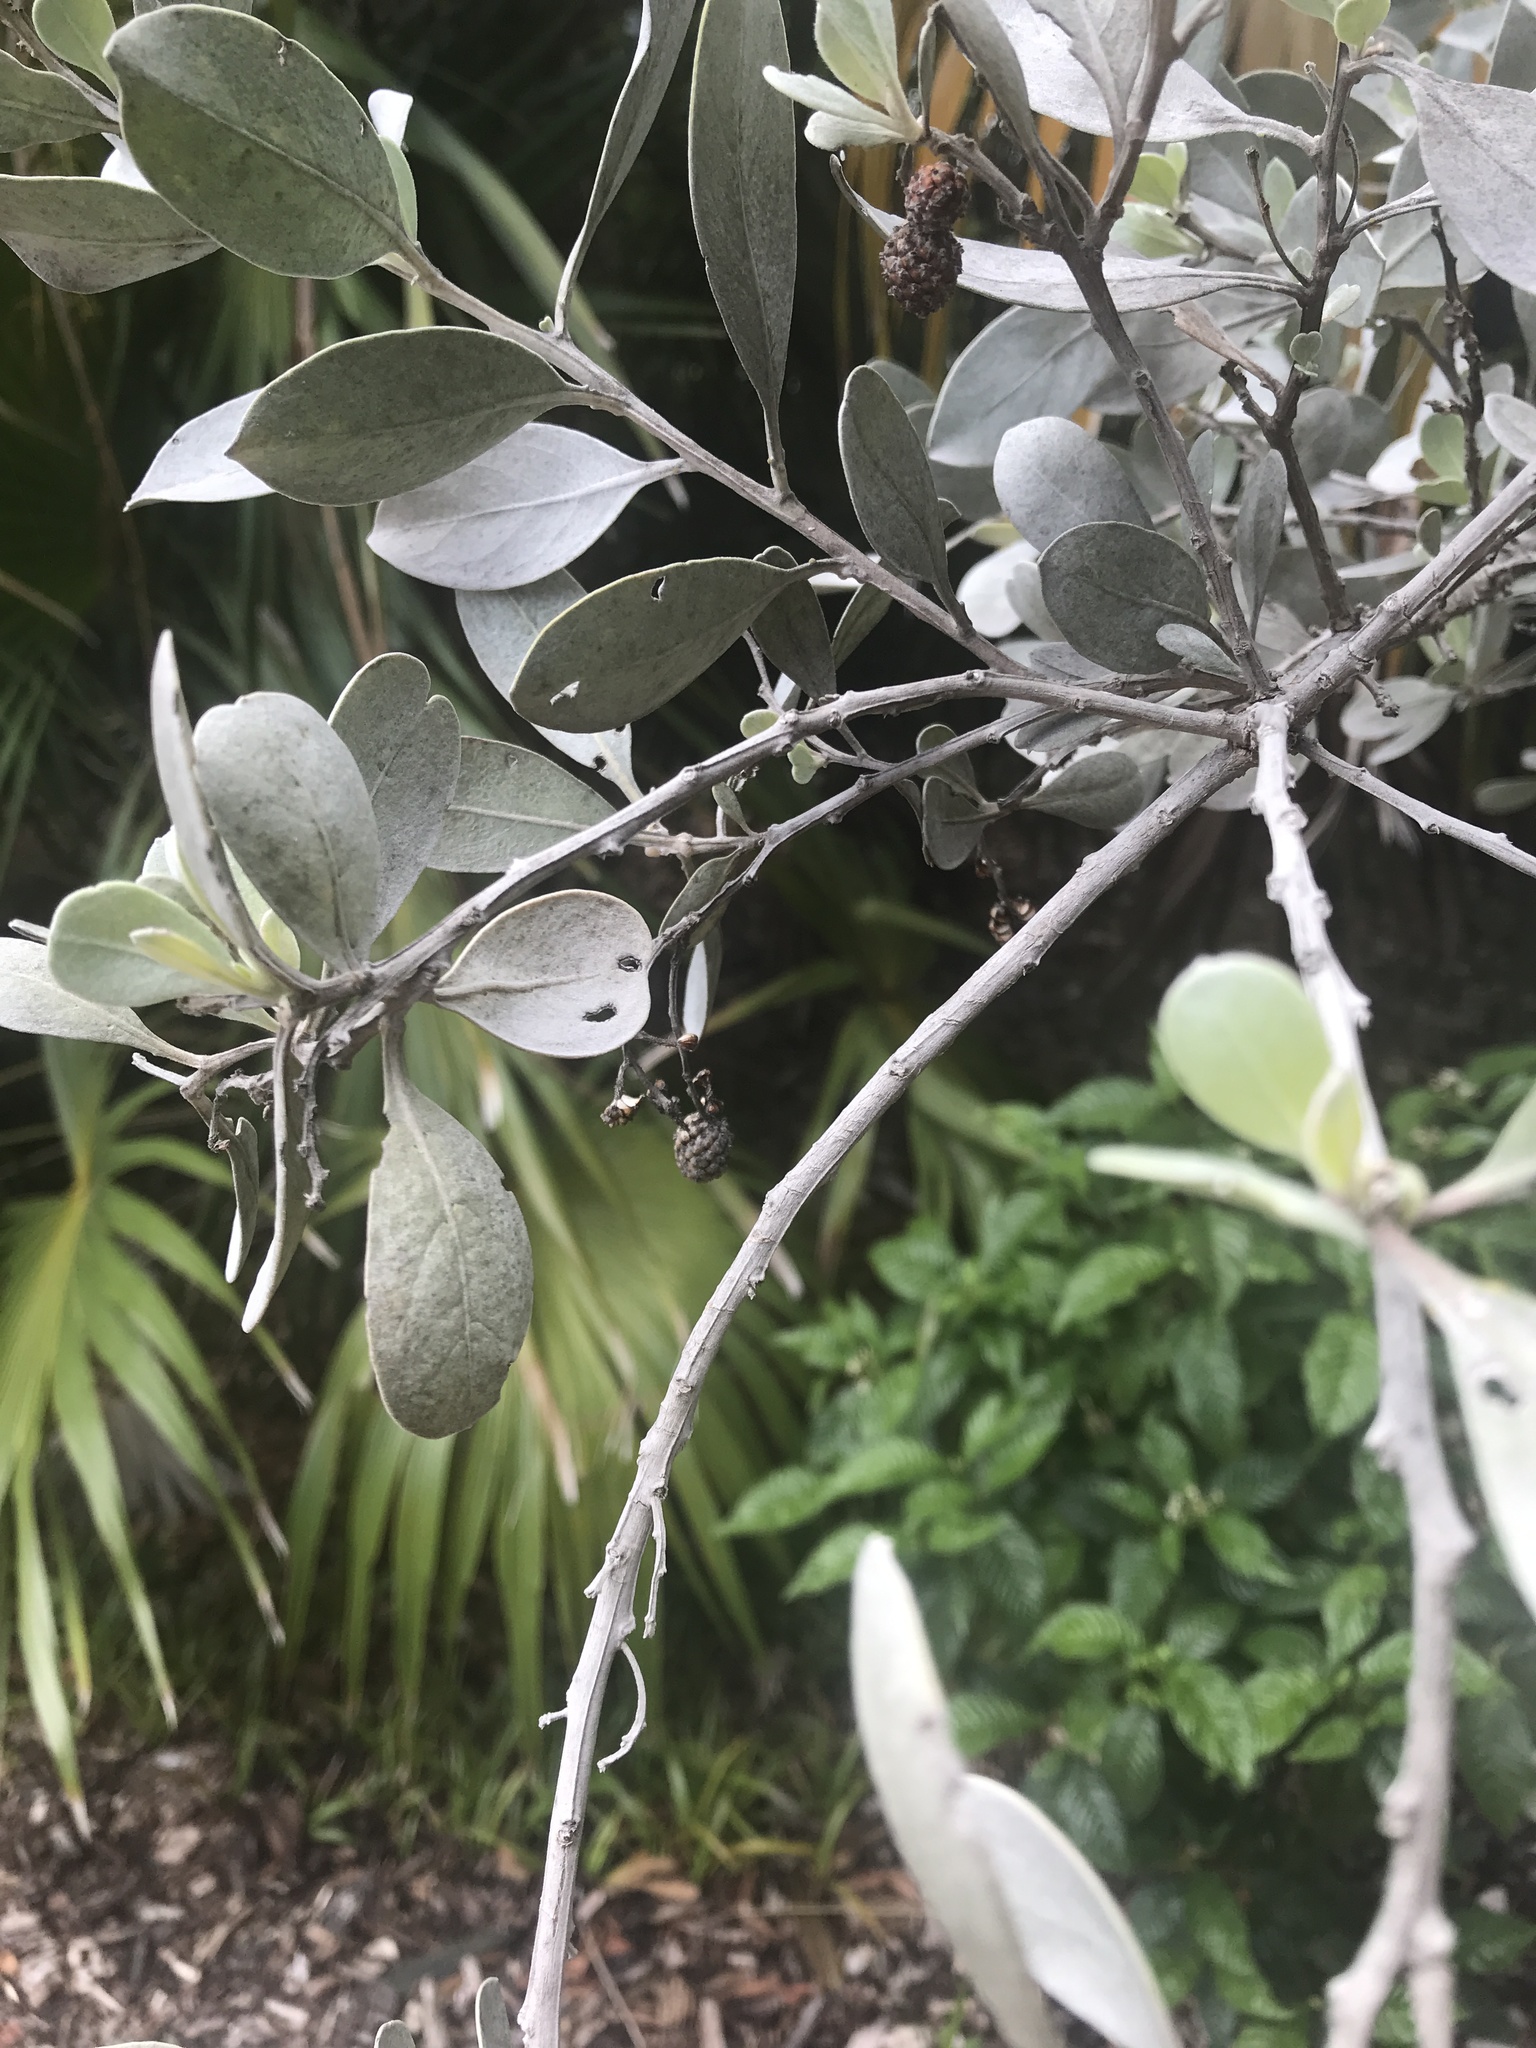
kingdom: Plantae
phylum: Tracheophyta
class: Magnoliopsida
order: Myrtales
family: Combretaceae
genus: Conocarpus
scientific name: Conocarpus erectus
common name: Button mangrove
